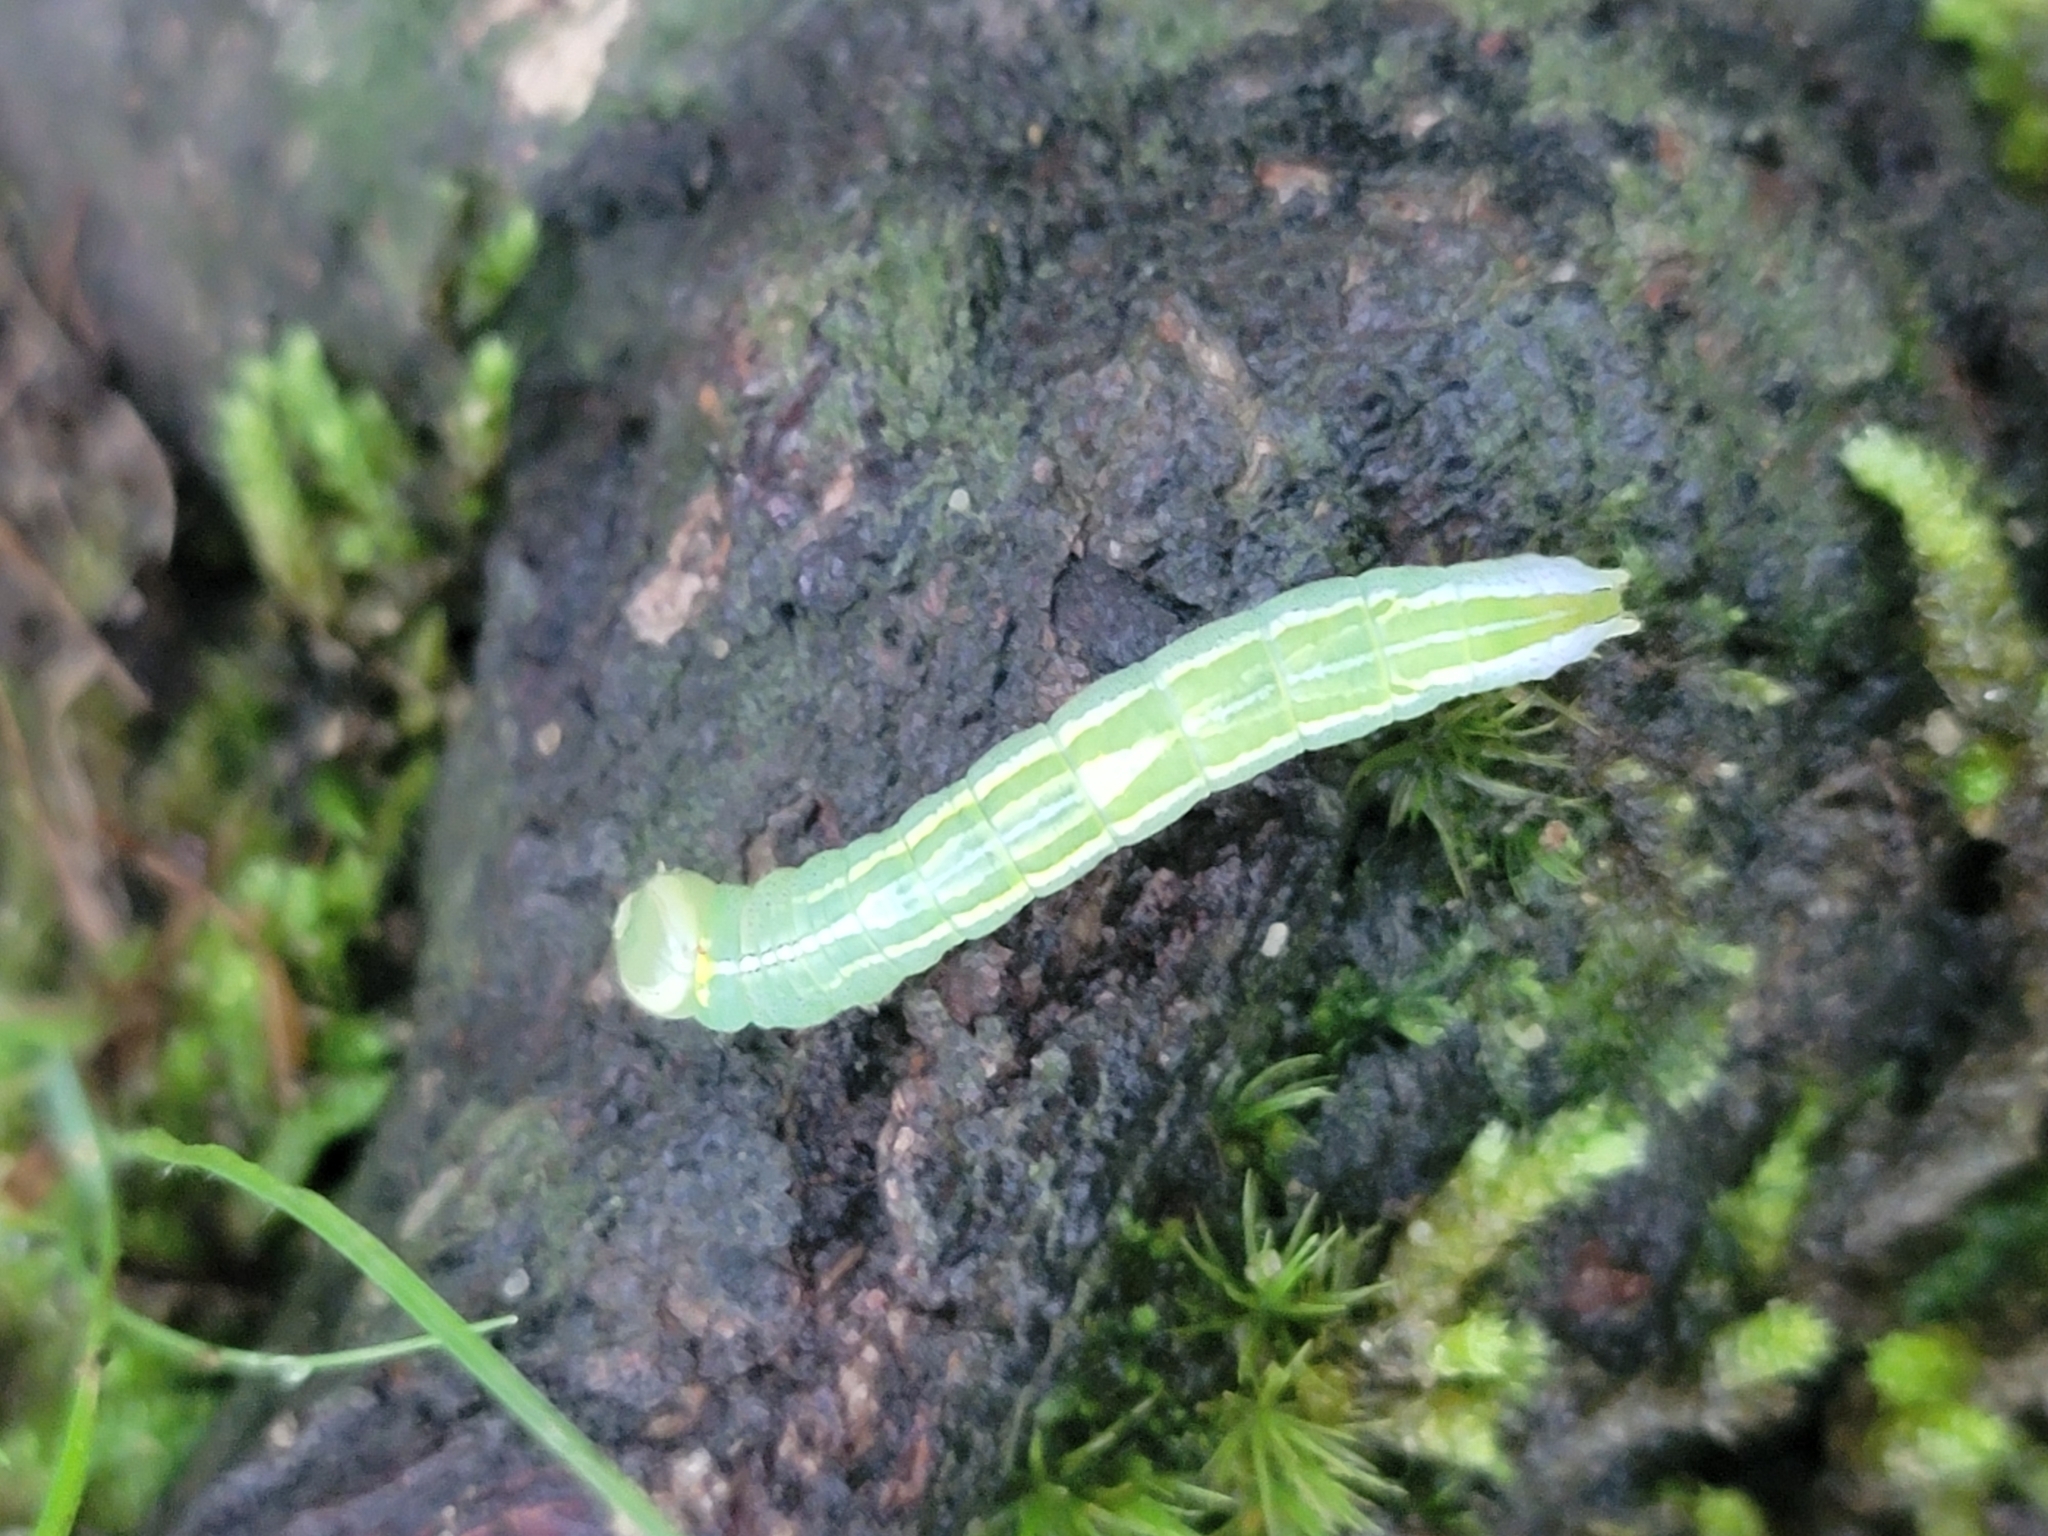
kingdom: Animalia
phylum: Arthropoda
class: Insecta
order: Lepidoptera
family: Notodontidae
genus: Disphragis
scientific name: Disphragis Cecrita guttivitta
